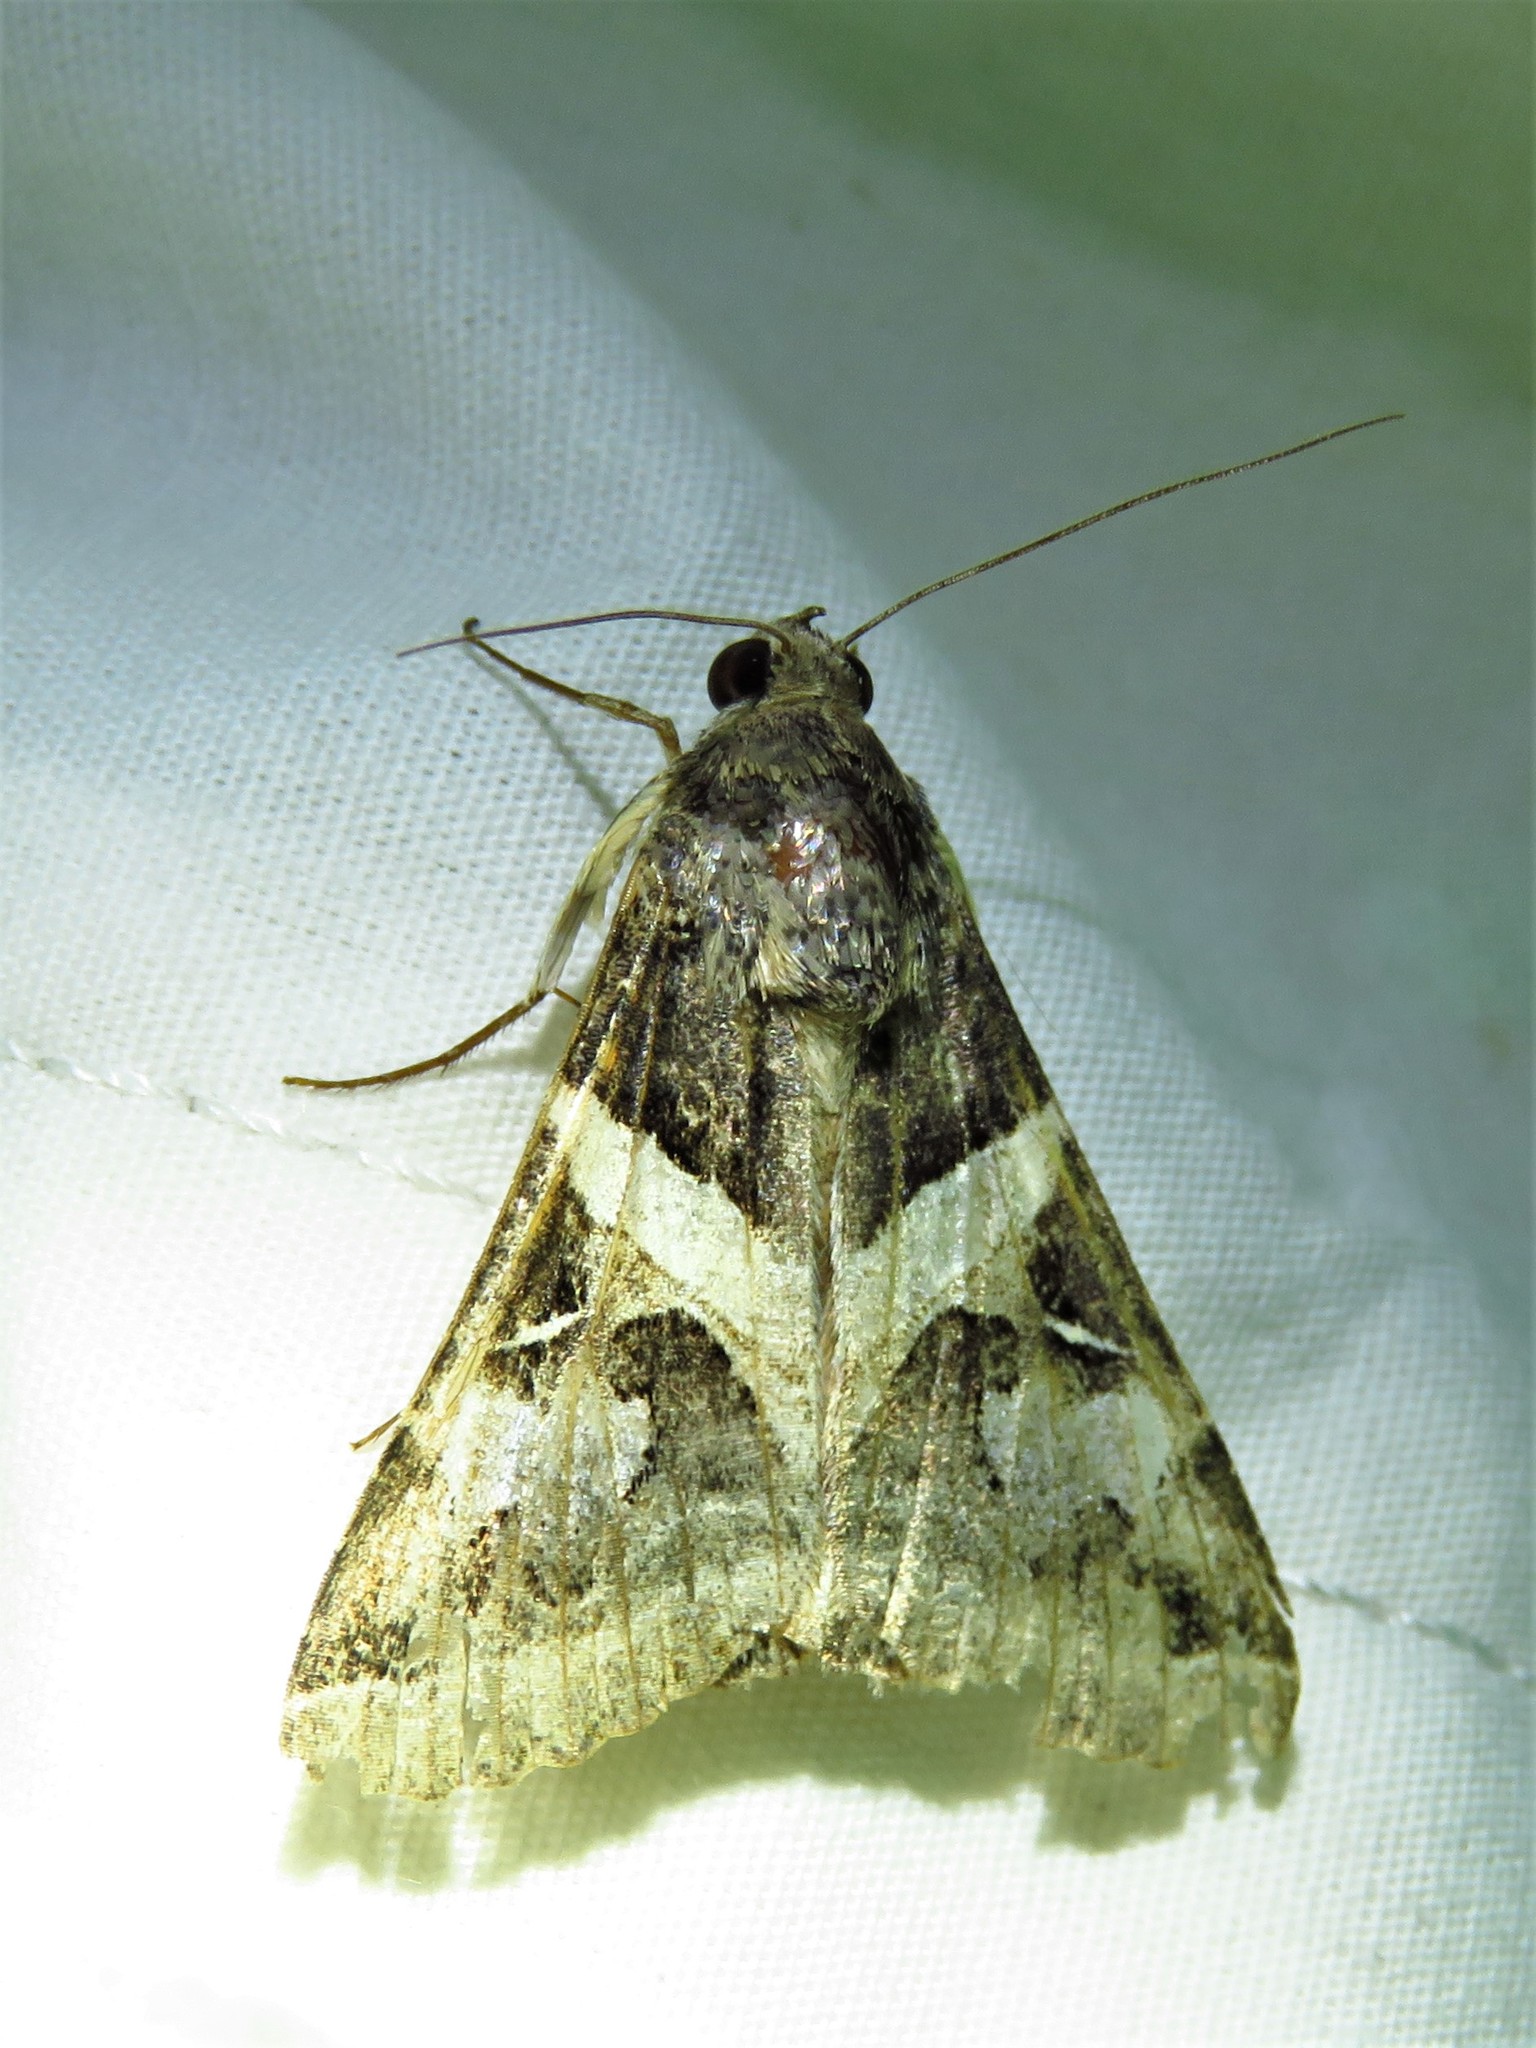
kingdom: Animalia
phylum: Arthropoda
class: Insecta
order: Lepidoptera
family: Erebidae
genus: Melipotis
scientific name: Melipotis indomita
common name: Moth
